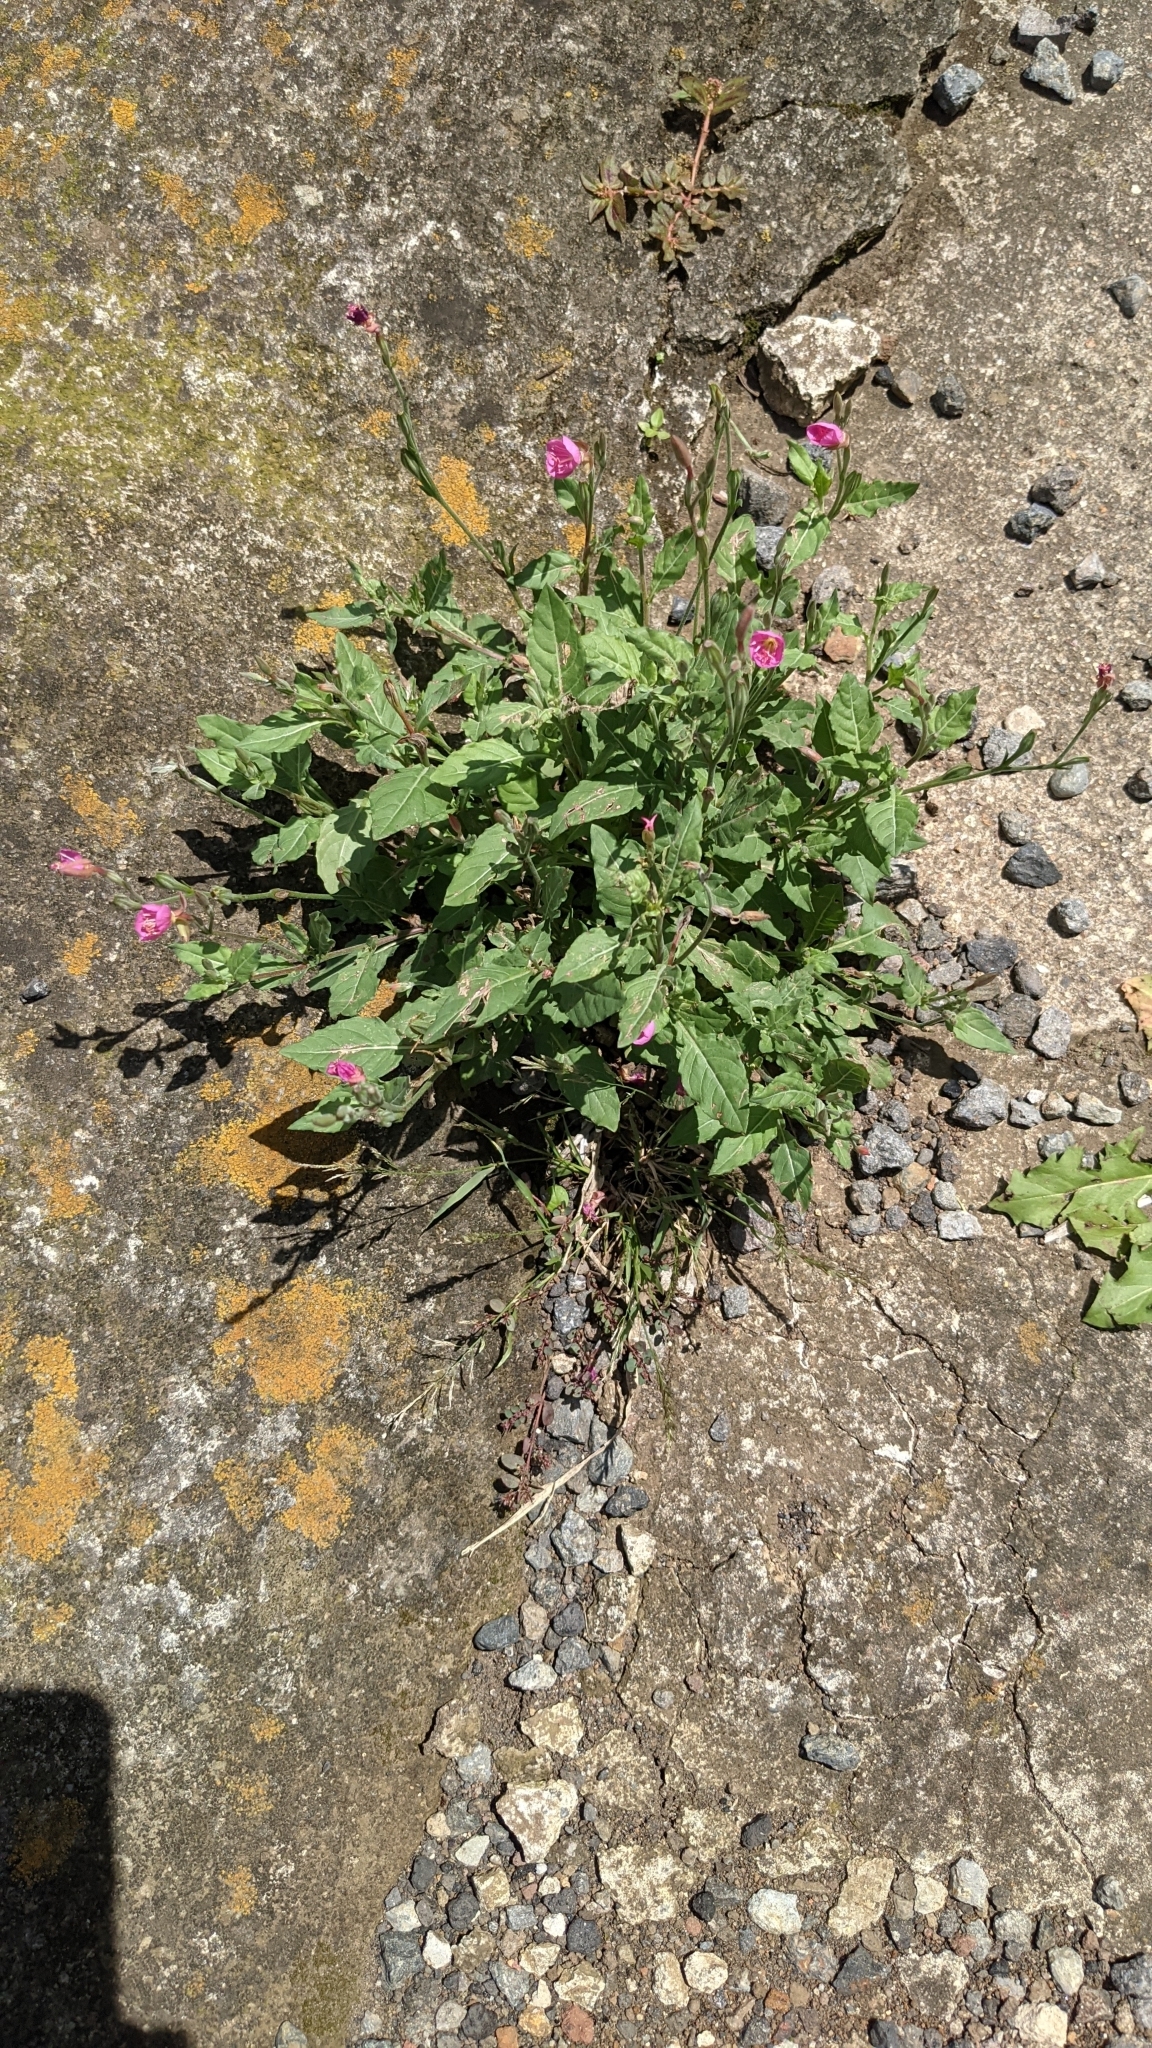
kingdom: Plantae
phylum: Tracheophyta
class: Magnoliopsida
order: Myrtales
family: Onagraceae
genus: Oenothera
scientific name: Oenothera rosea
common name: Rosy evening-primrose
